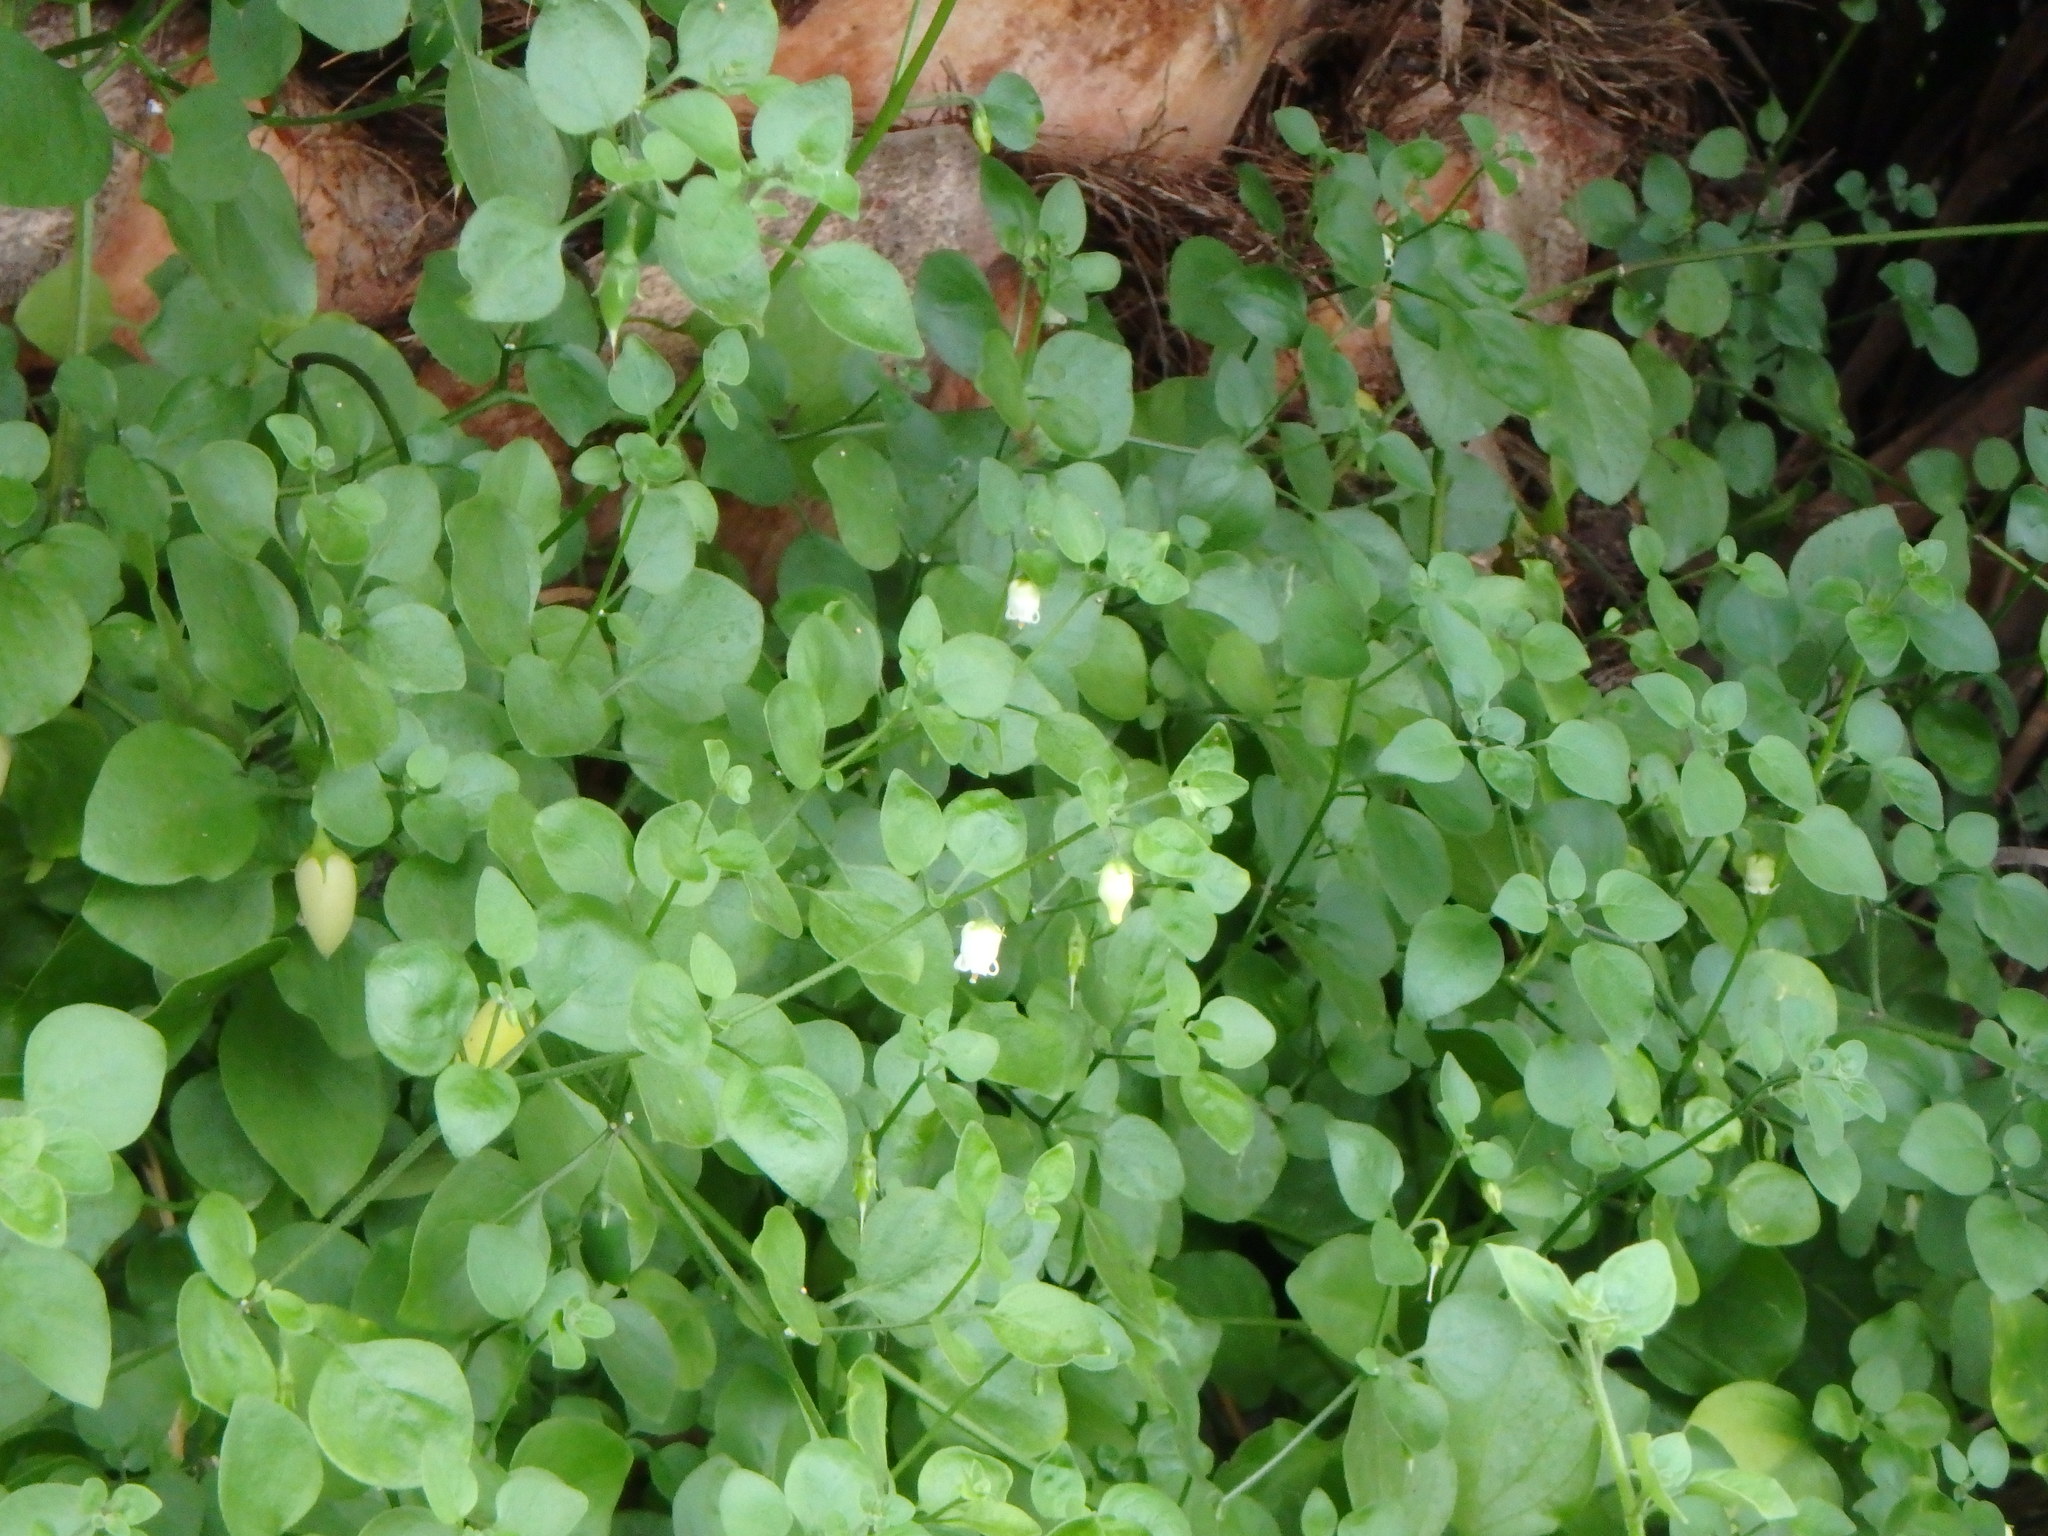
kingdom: Plantae
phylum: Tracheophyta
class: Magnoliopsida
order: Solanales
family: Solanaceae
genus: Salpichroa
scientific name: Salpichroa origanifolia
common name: Lily-of-the-valley-vine
